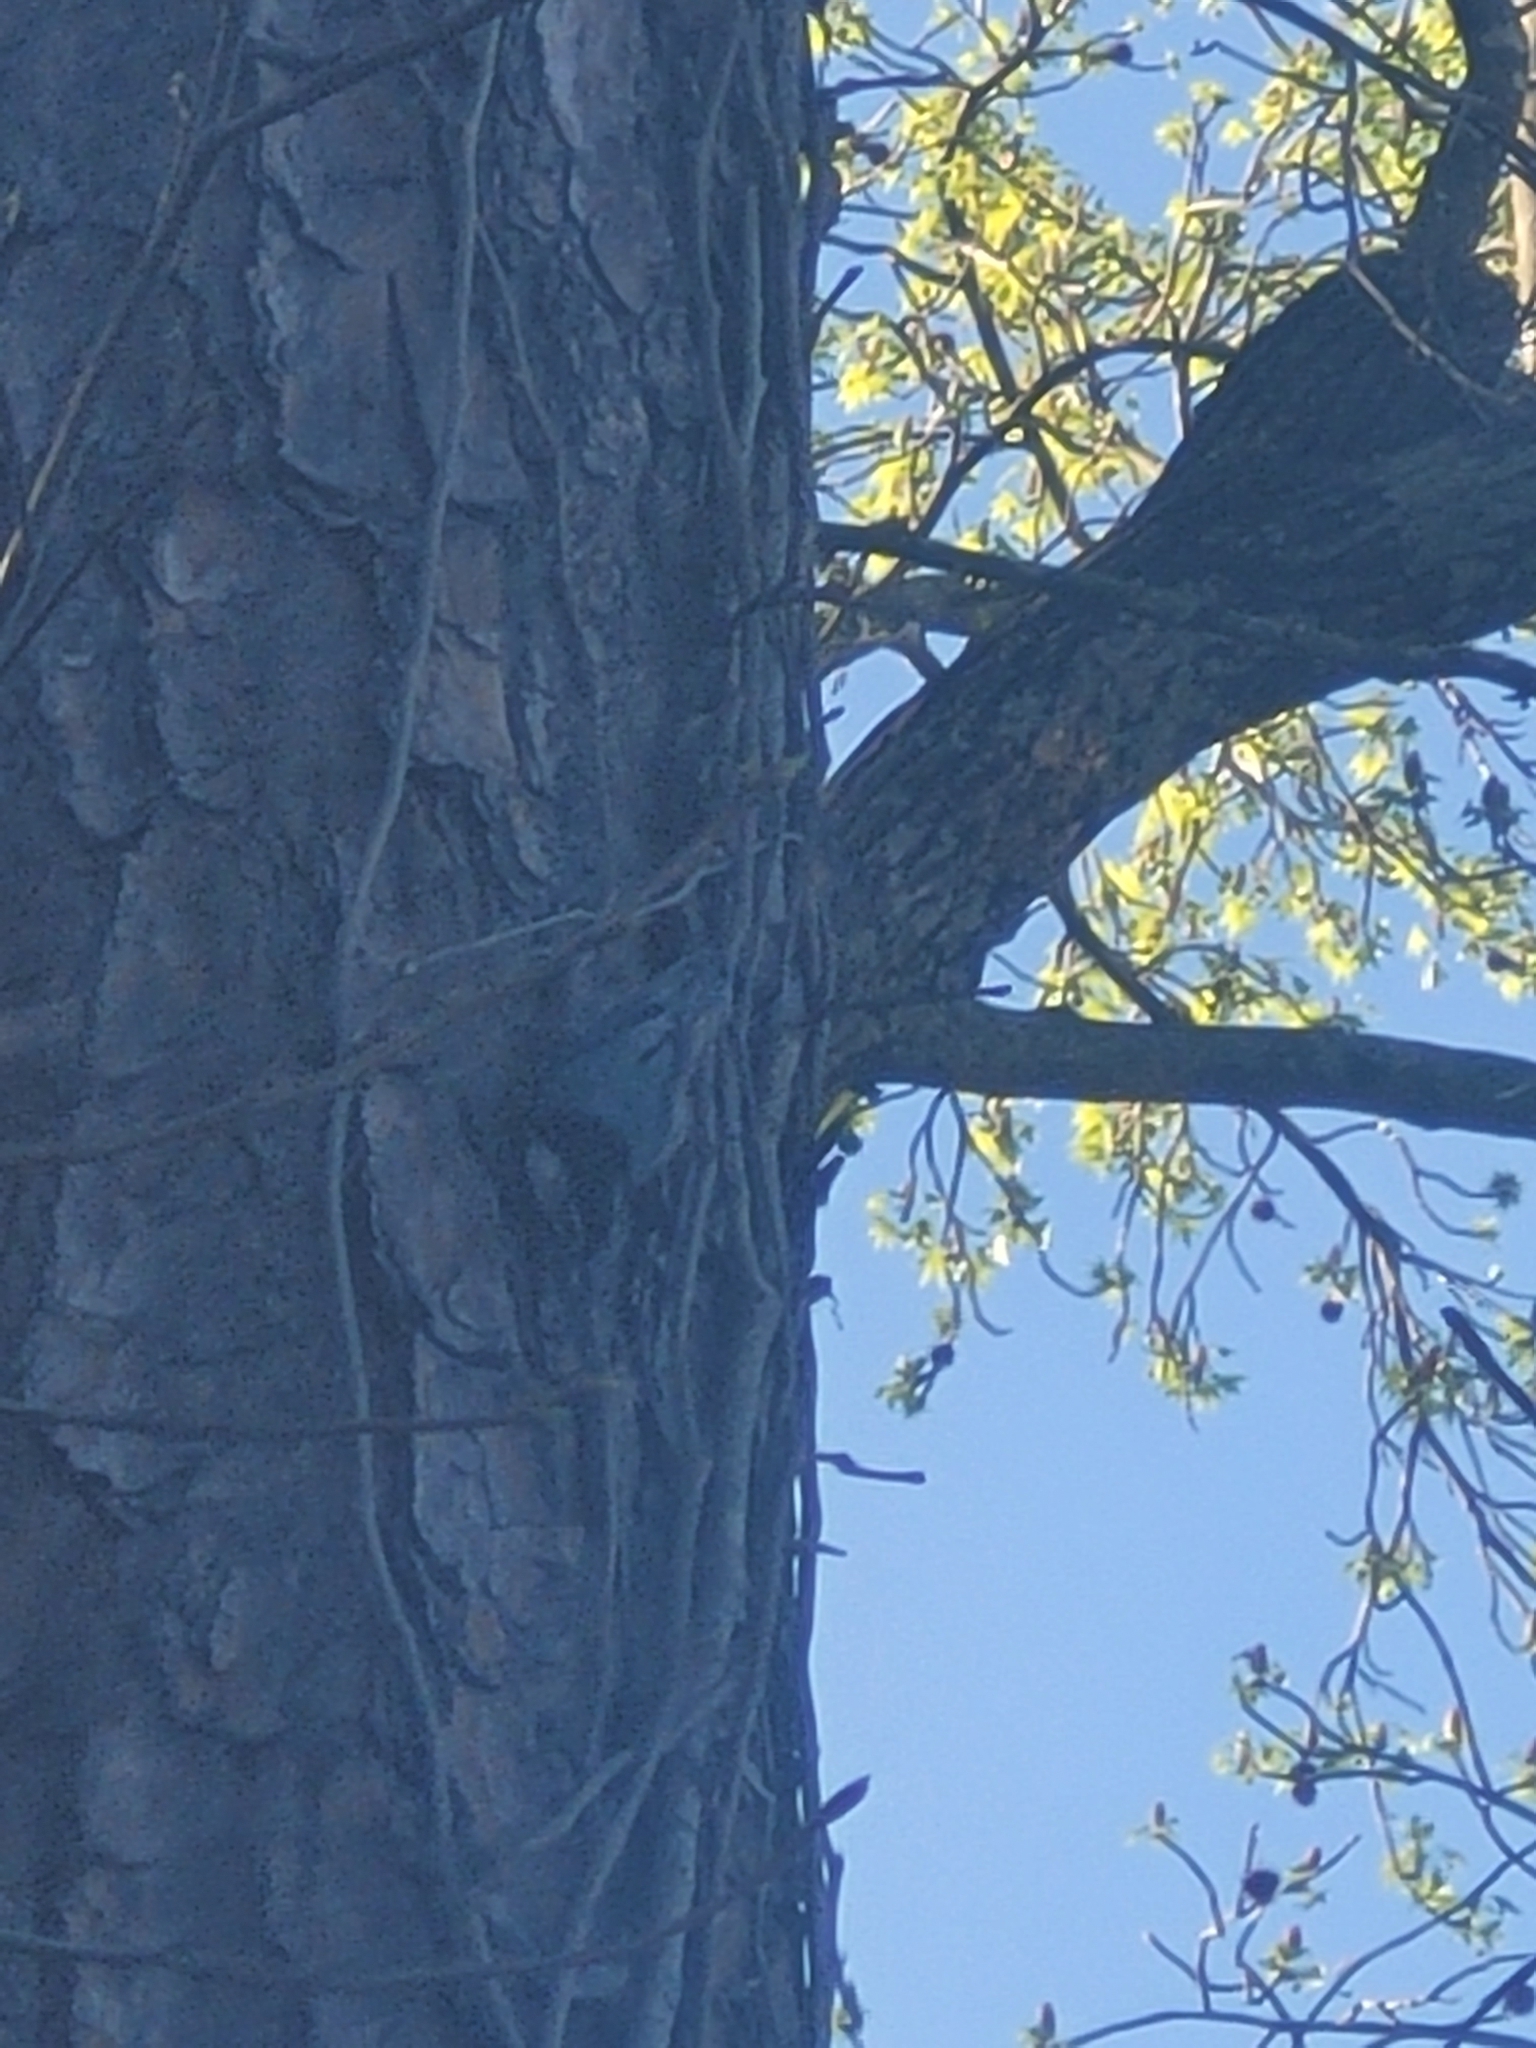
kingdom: Animalia
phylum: Chordata
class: Aves
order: Passeriformes
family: Sittidae
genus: Sitta
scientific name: Sitta carolinensis
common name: White-breasted nuthatch
